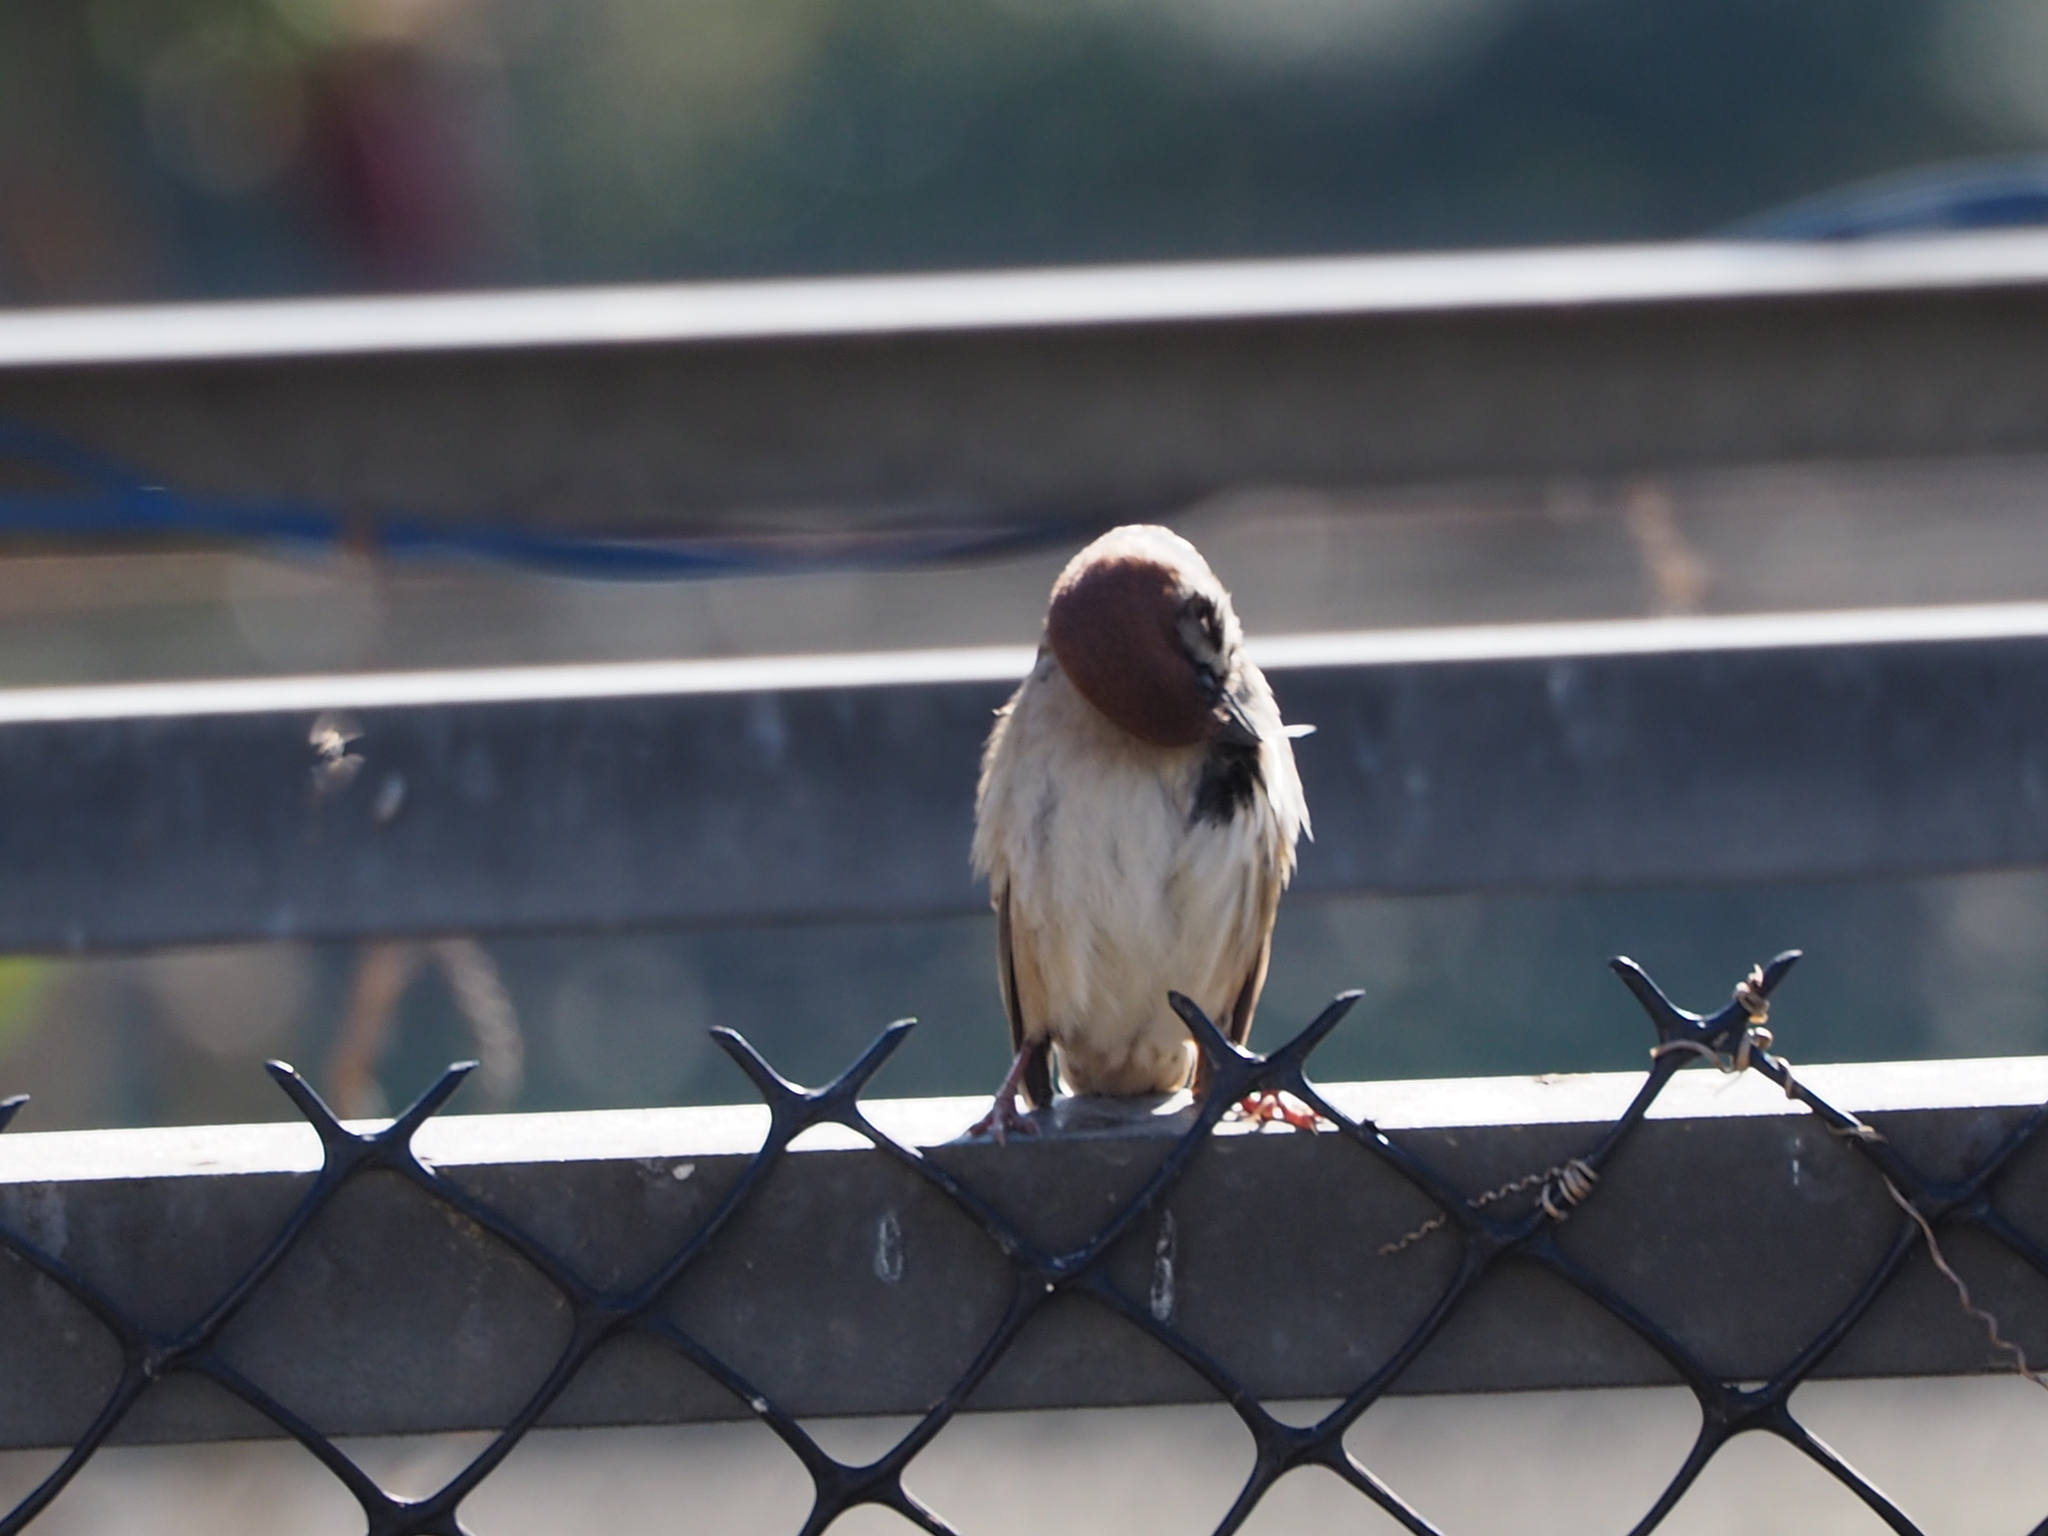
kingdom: Animalia
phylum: Chordata
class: Aves
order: Passeriformes
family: Passeridae
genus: Passer
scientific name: Passer montanus
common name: Eurasian tree sparrow
